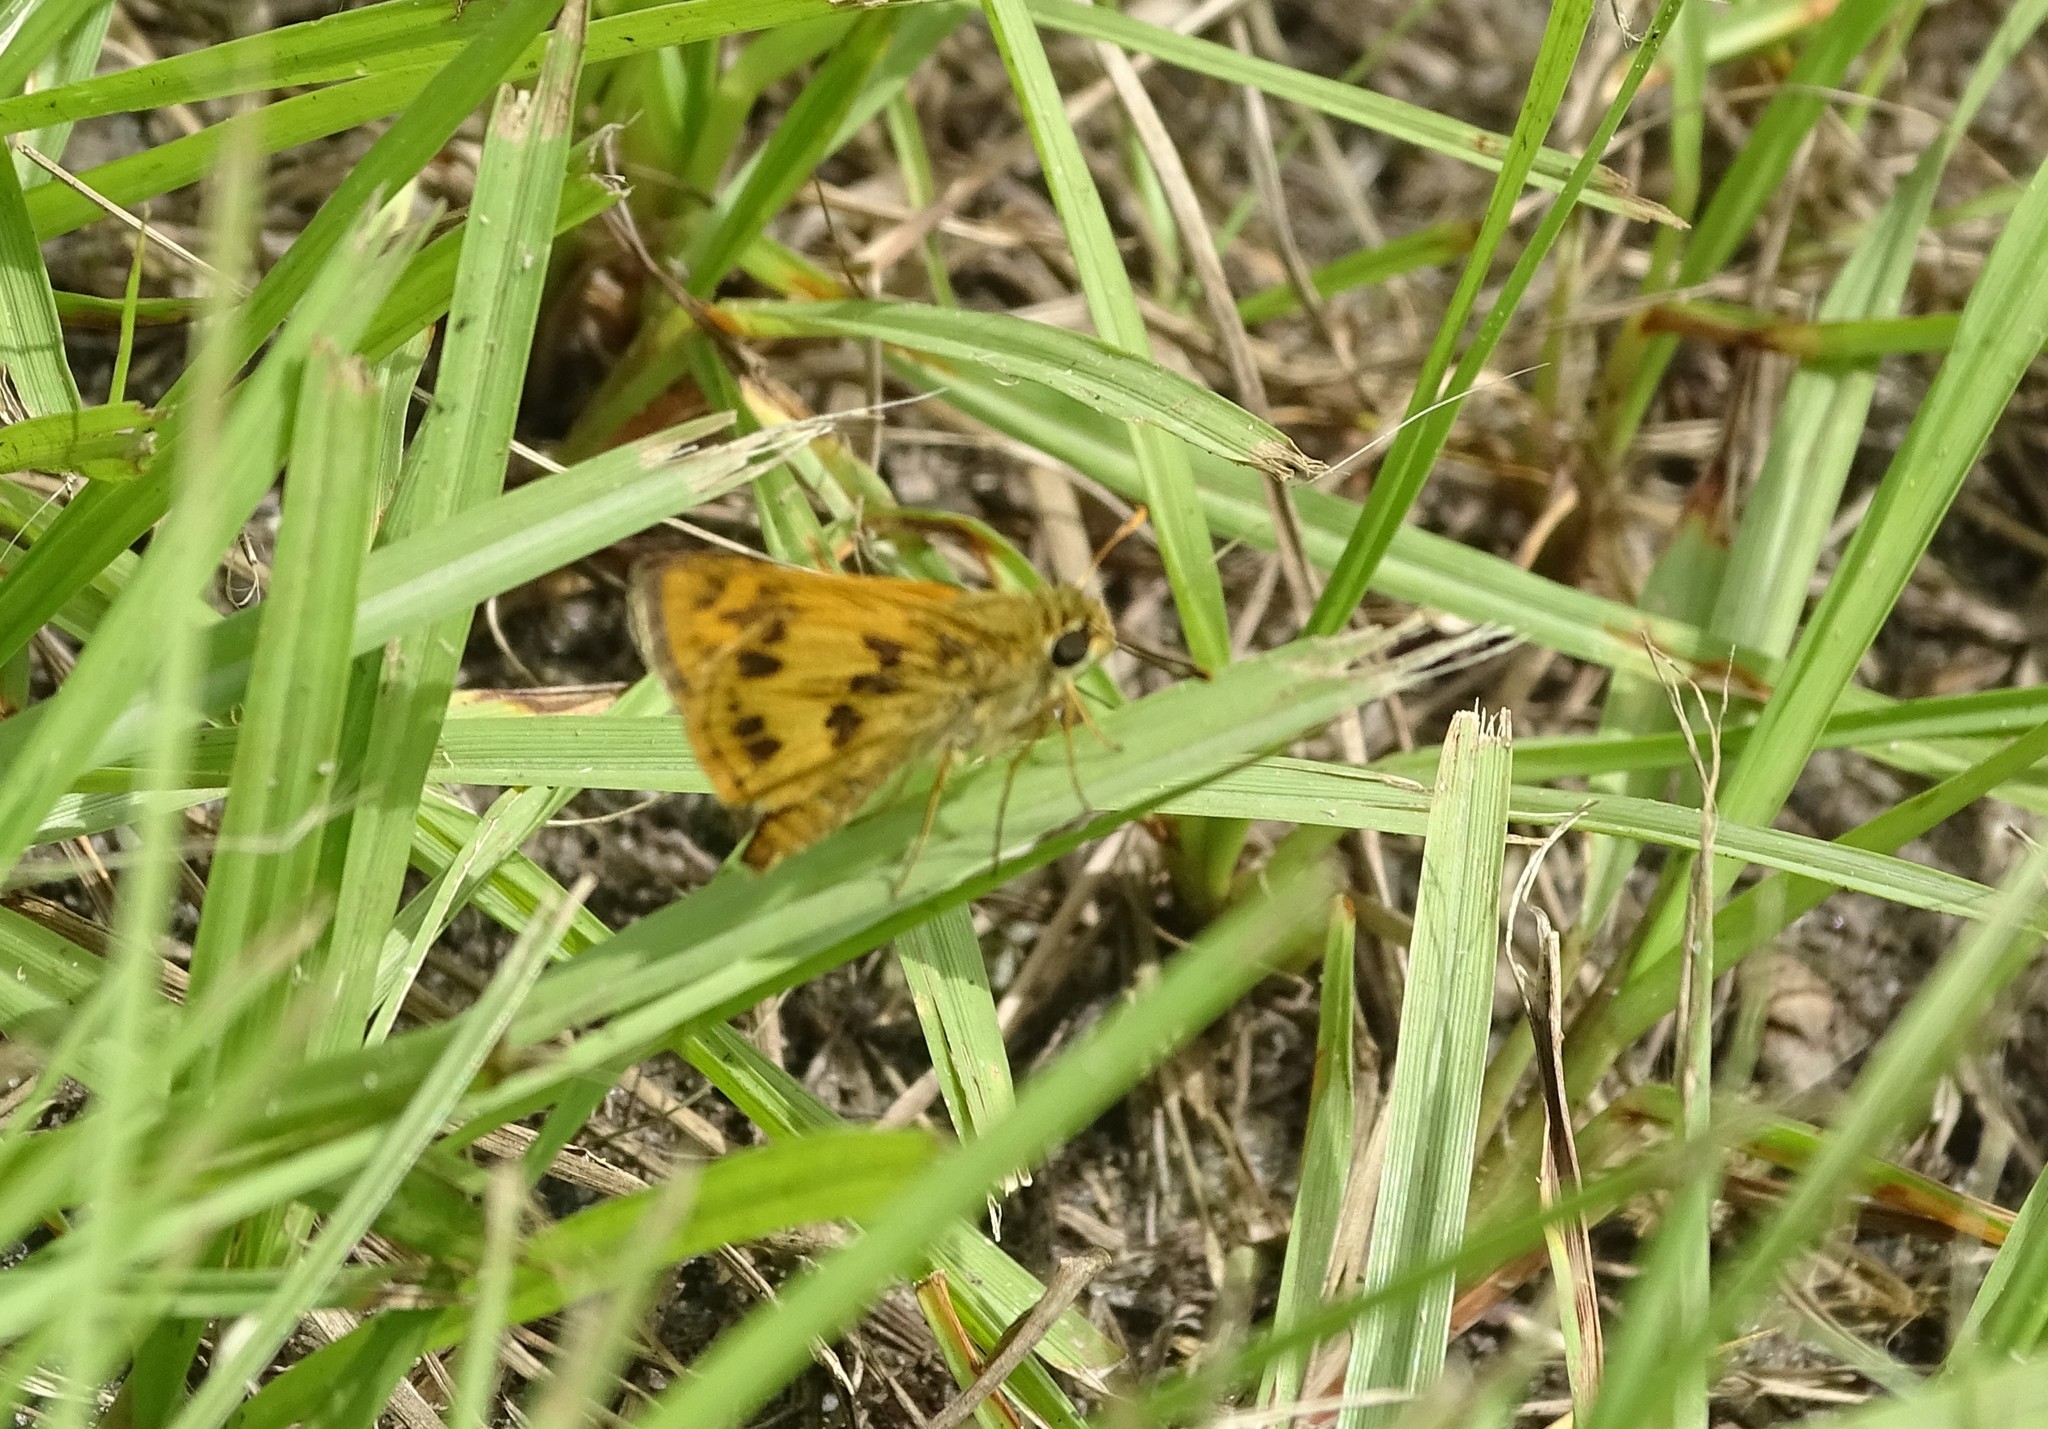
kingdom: Animalia
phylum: Arthropoda
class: Insecta
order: Lepidoptera
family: Hesperiidae
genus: Polites
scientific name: Polites vibex
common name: Whirlabout
